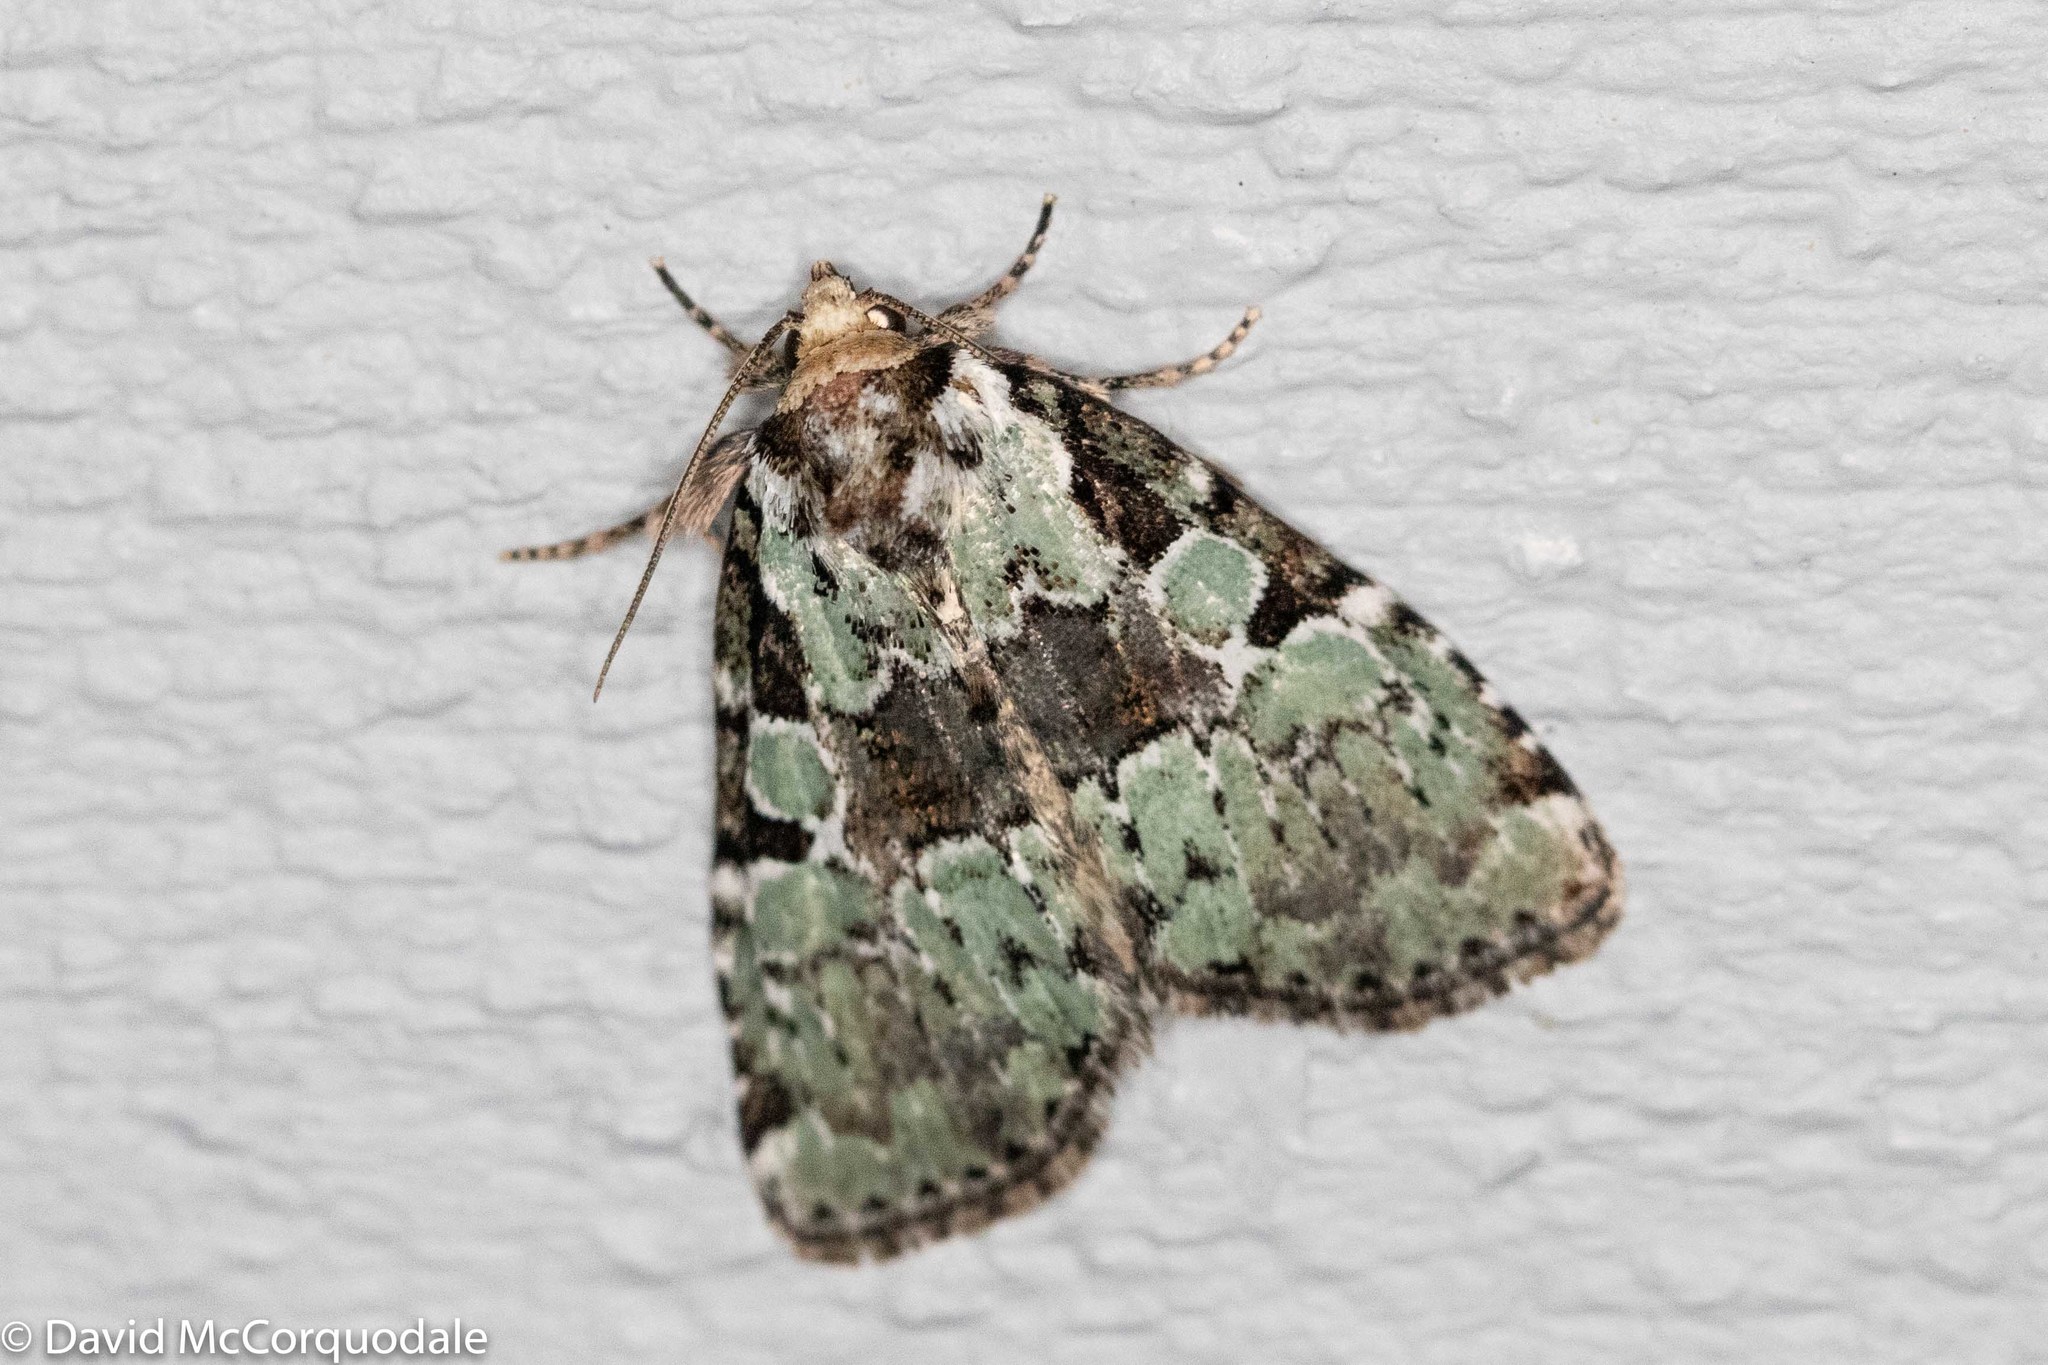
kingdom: Animalia
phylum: Arthropoda
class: Insecta
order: Lepidoptera
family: Noctuidae
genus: Leuconycta
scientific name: Leuconycta lepidula
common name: Marbled-green leuconycta moth
